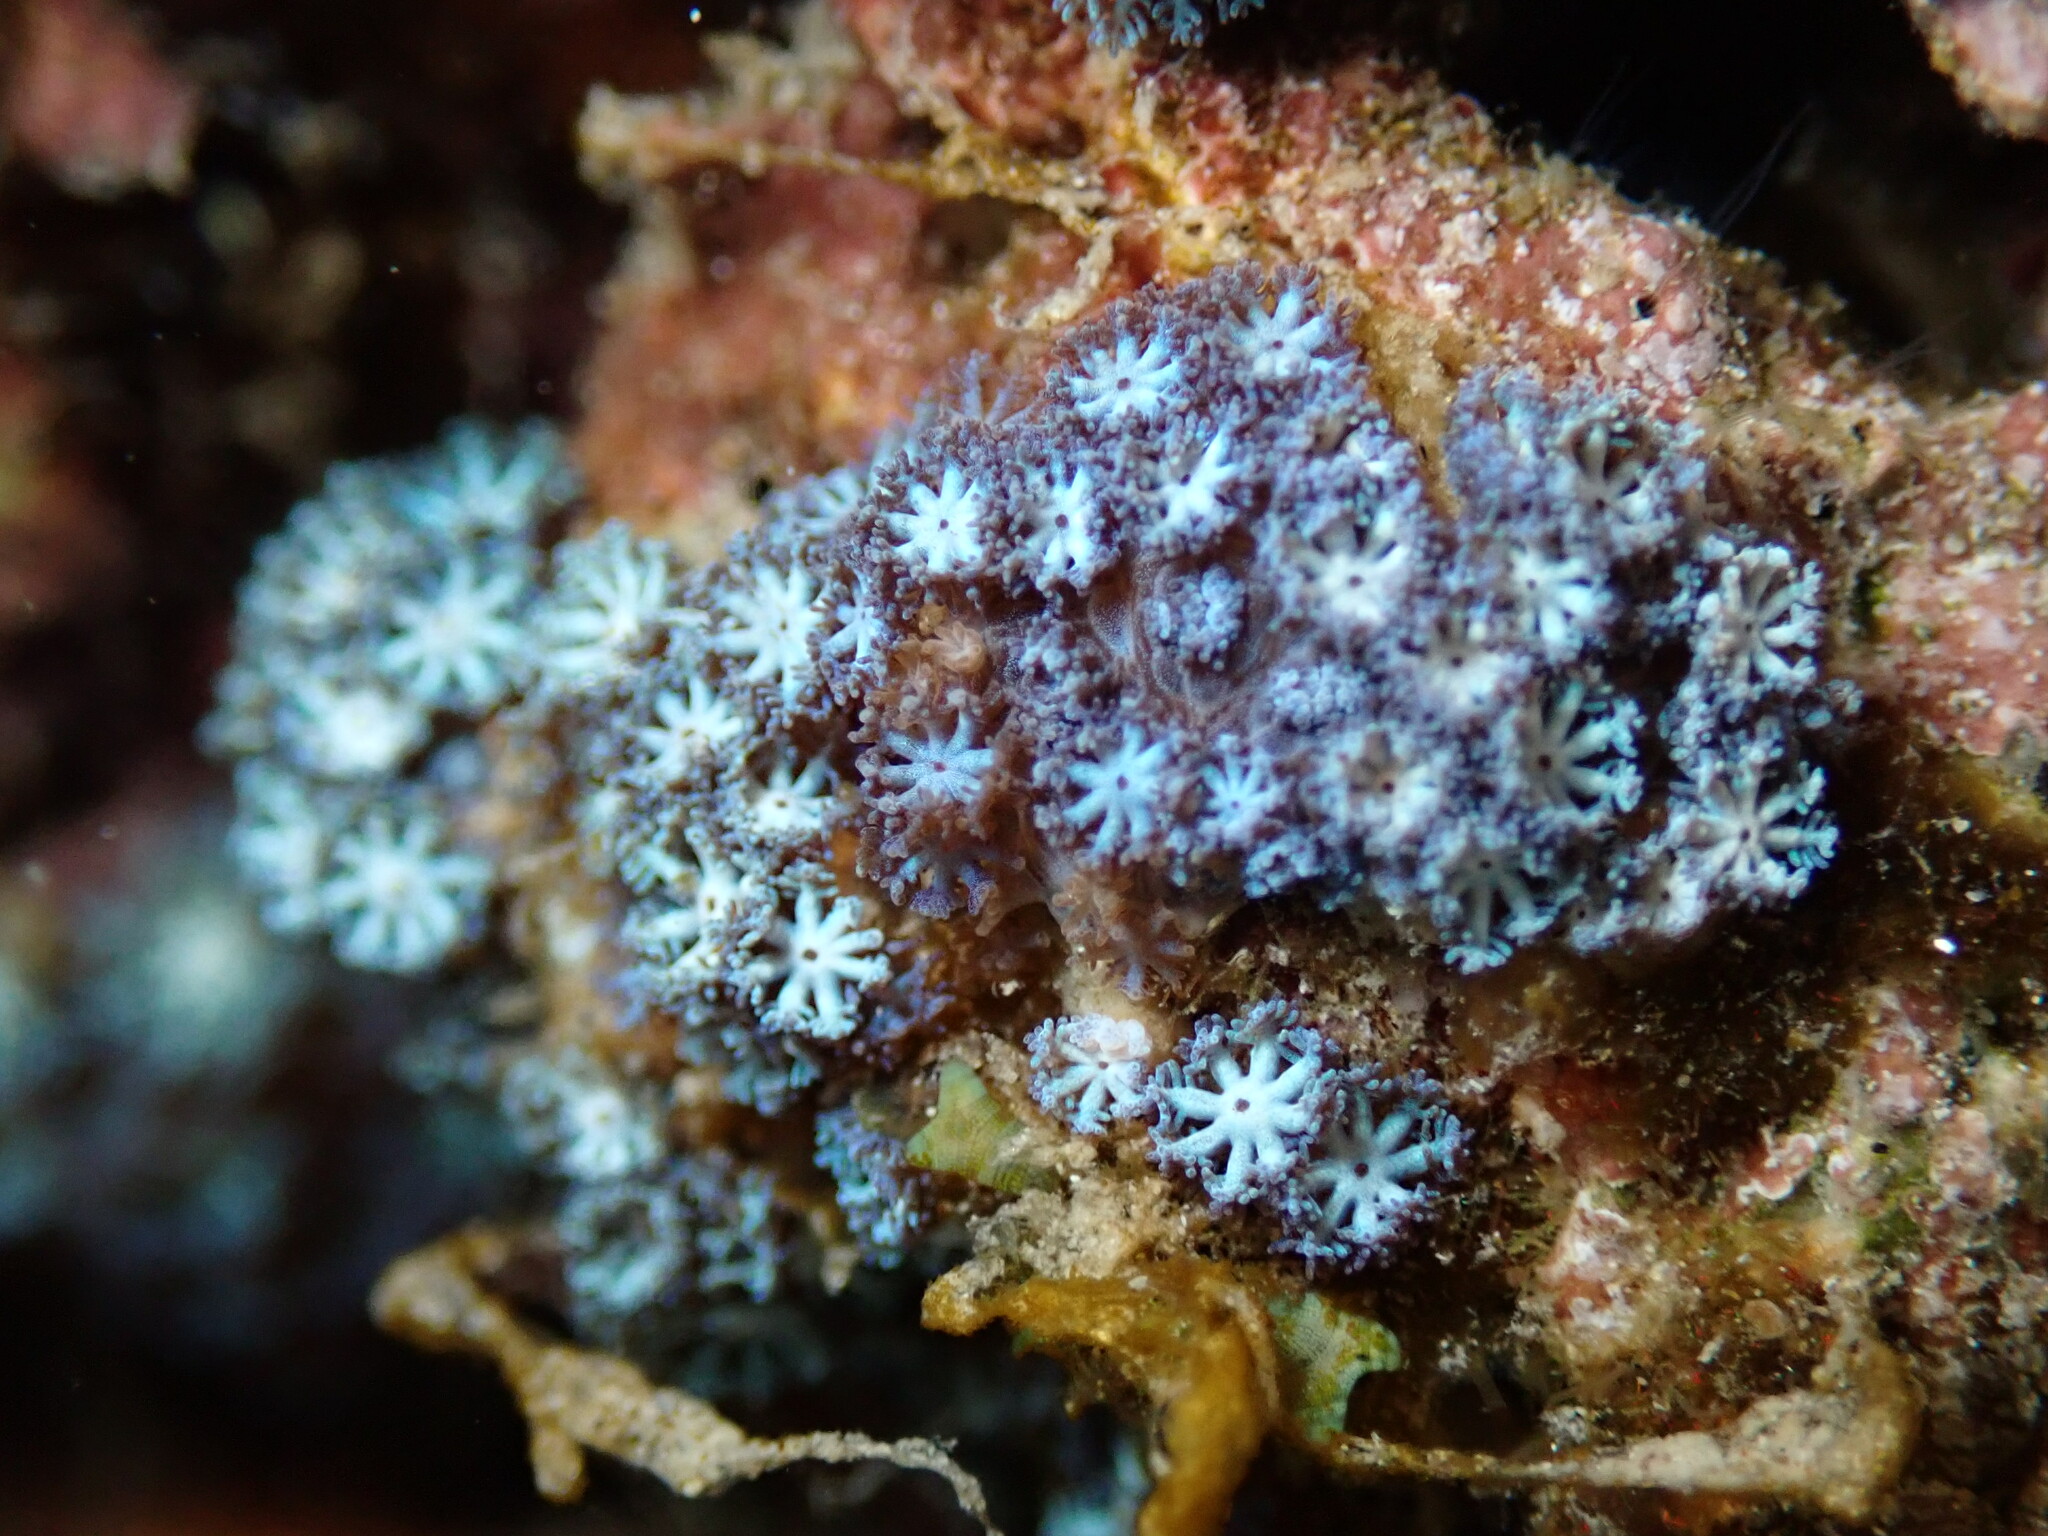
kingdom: Animalia
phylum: Cnidaria
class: Anthozoa
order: Malacalcyonacea
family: Xeniidae
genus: Sarcothelia
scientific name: Sarcothelia edmondsoni
